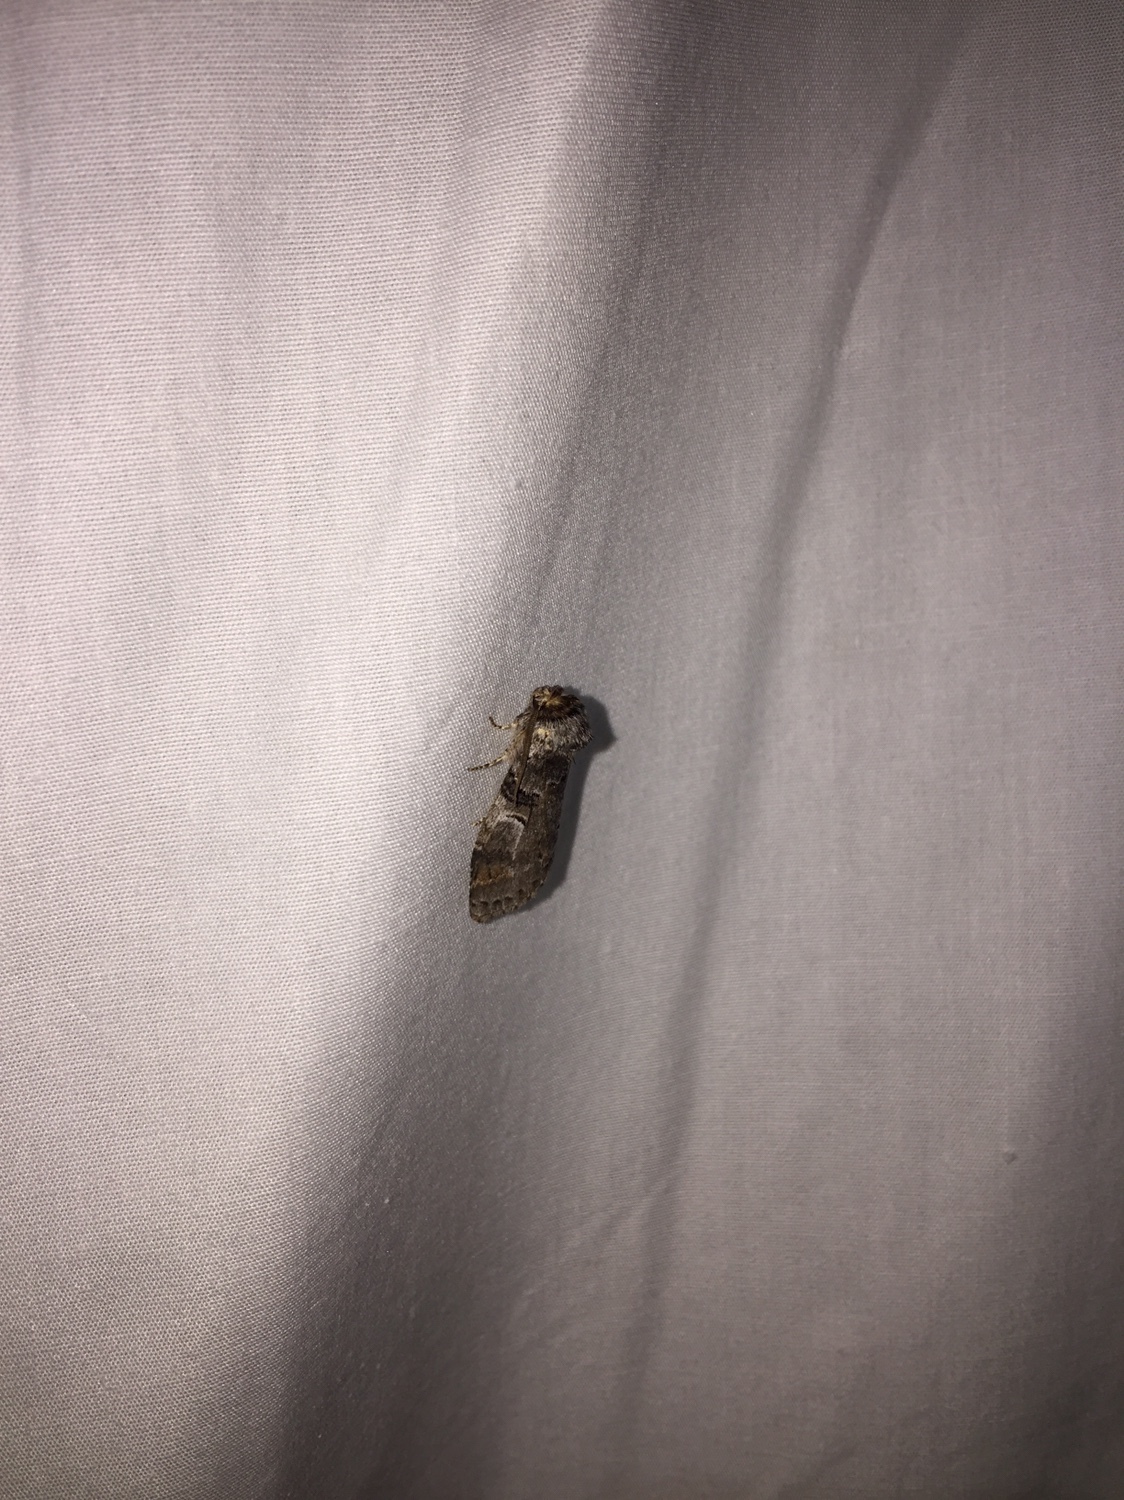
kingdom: Animalia
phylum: Arthropoda
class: Insecta
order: Lepidoptera
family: Notodontidae
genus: Ellida
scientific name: Ellida caniplaga
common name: Linden prominent
